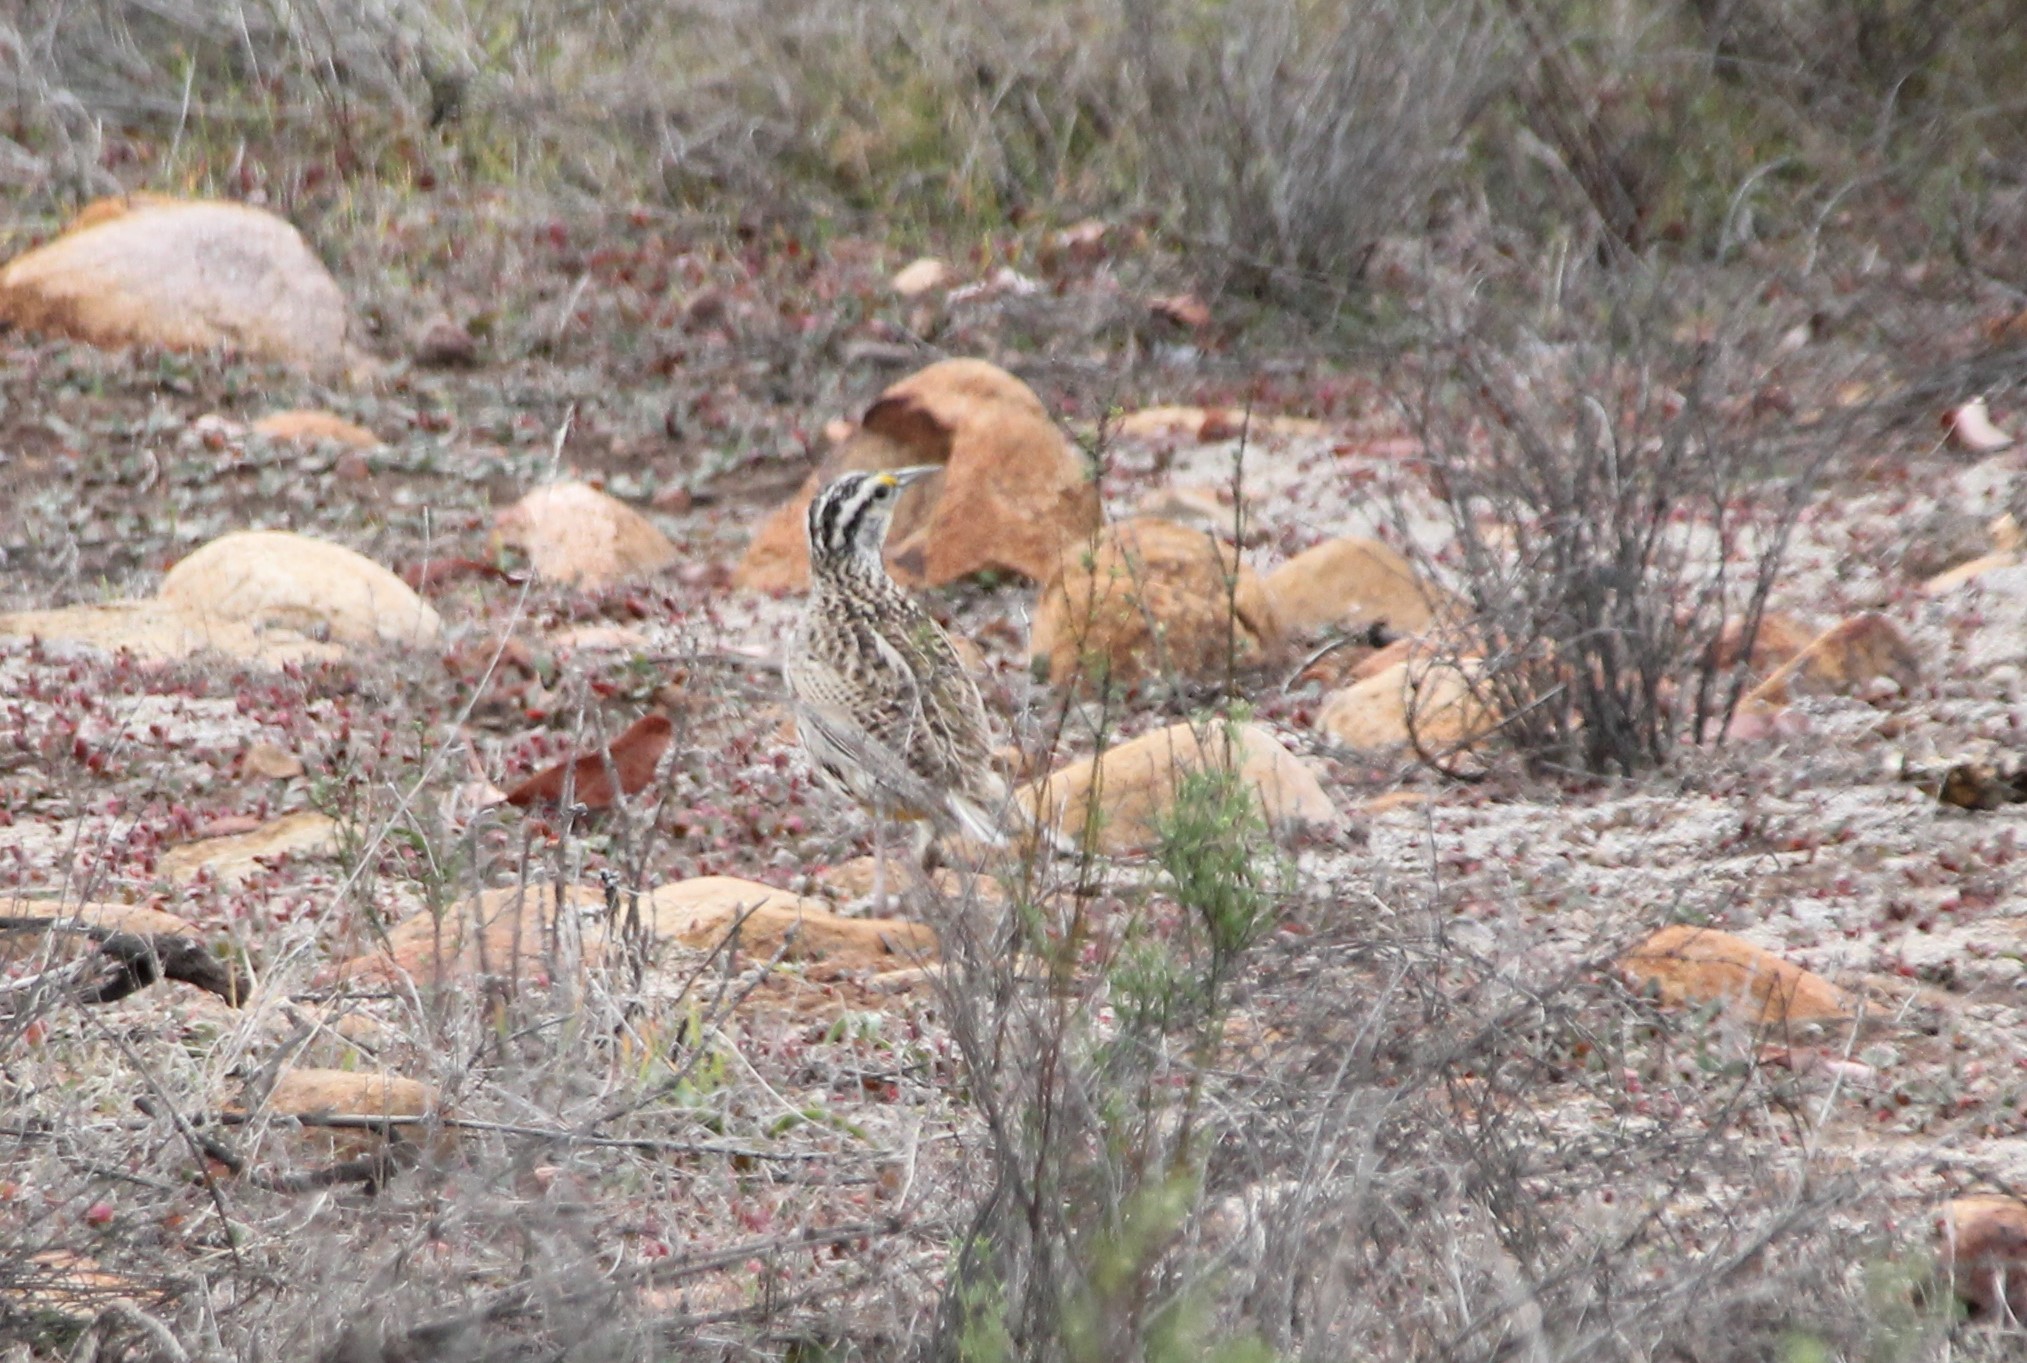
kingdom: Animalia
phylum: Chordata
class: Aves
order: Passeriformes
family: Icteridae
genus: Sturnella
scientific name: Sturnella neglecta
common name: Western meadowlark
